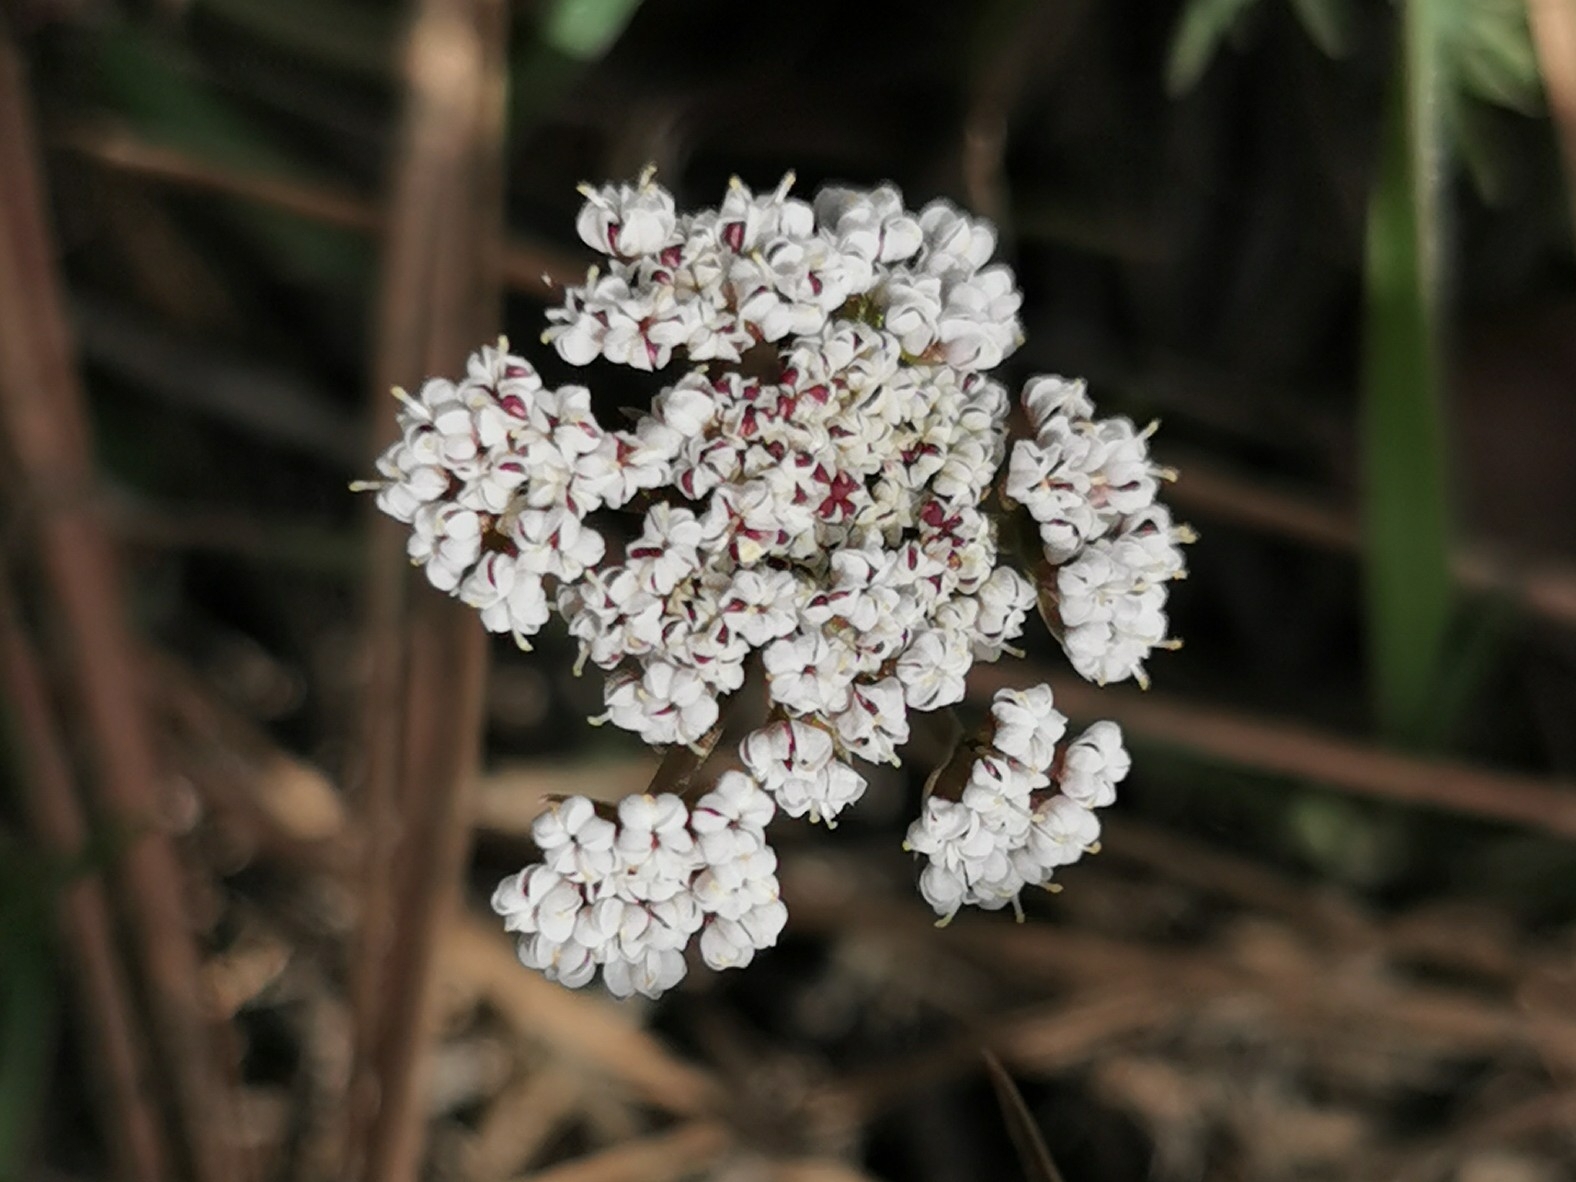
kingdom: Plantae
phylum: Tracheophyta
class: Magnoliopsida
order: Apiales
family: Apiaceae
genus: Lomatium
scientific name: Lomatium geyeri
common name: Geyer's biscuitroot
